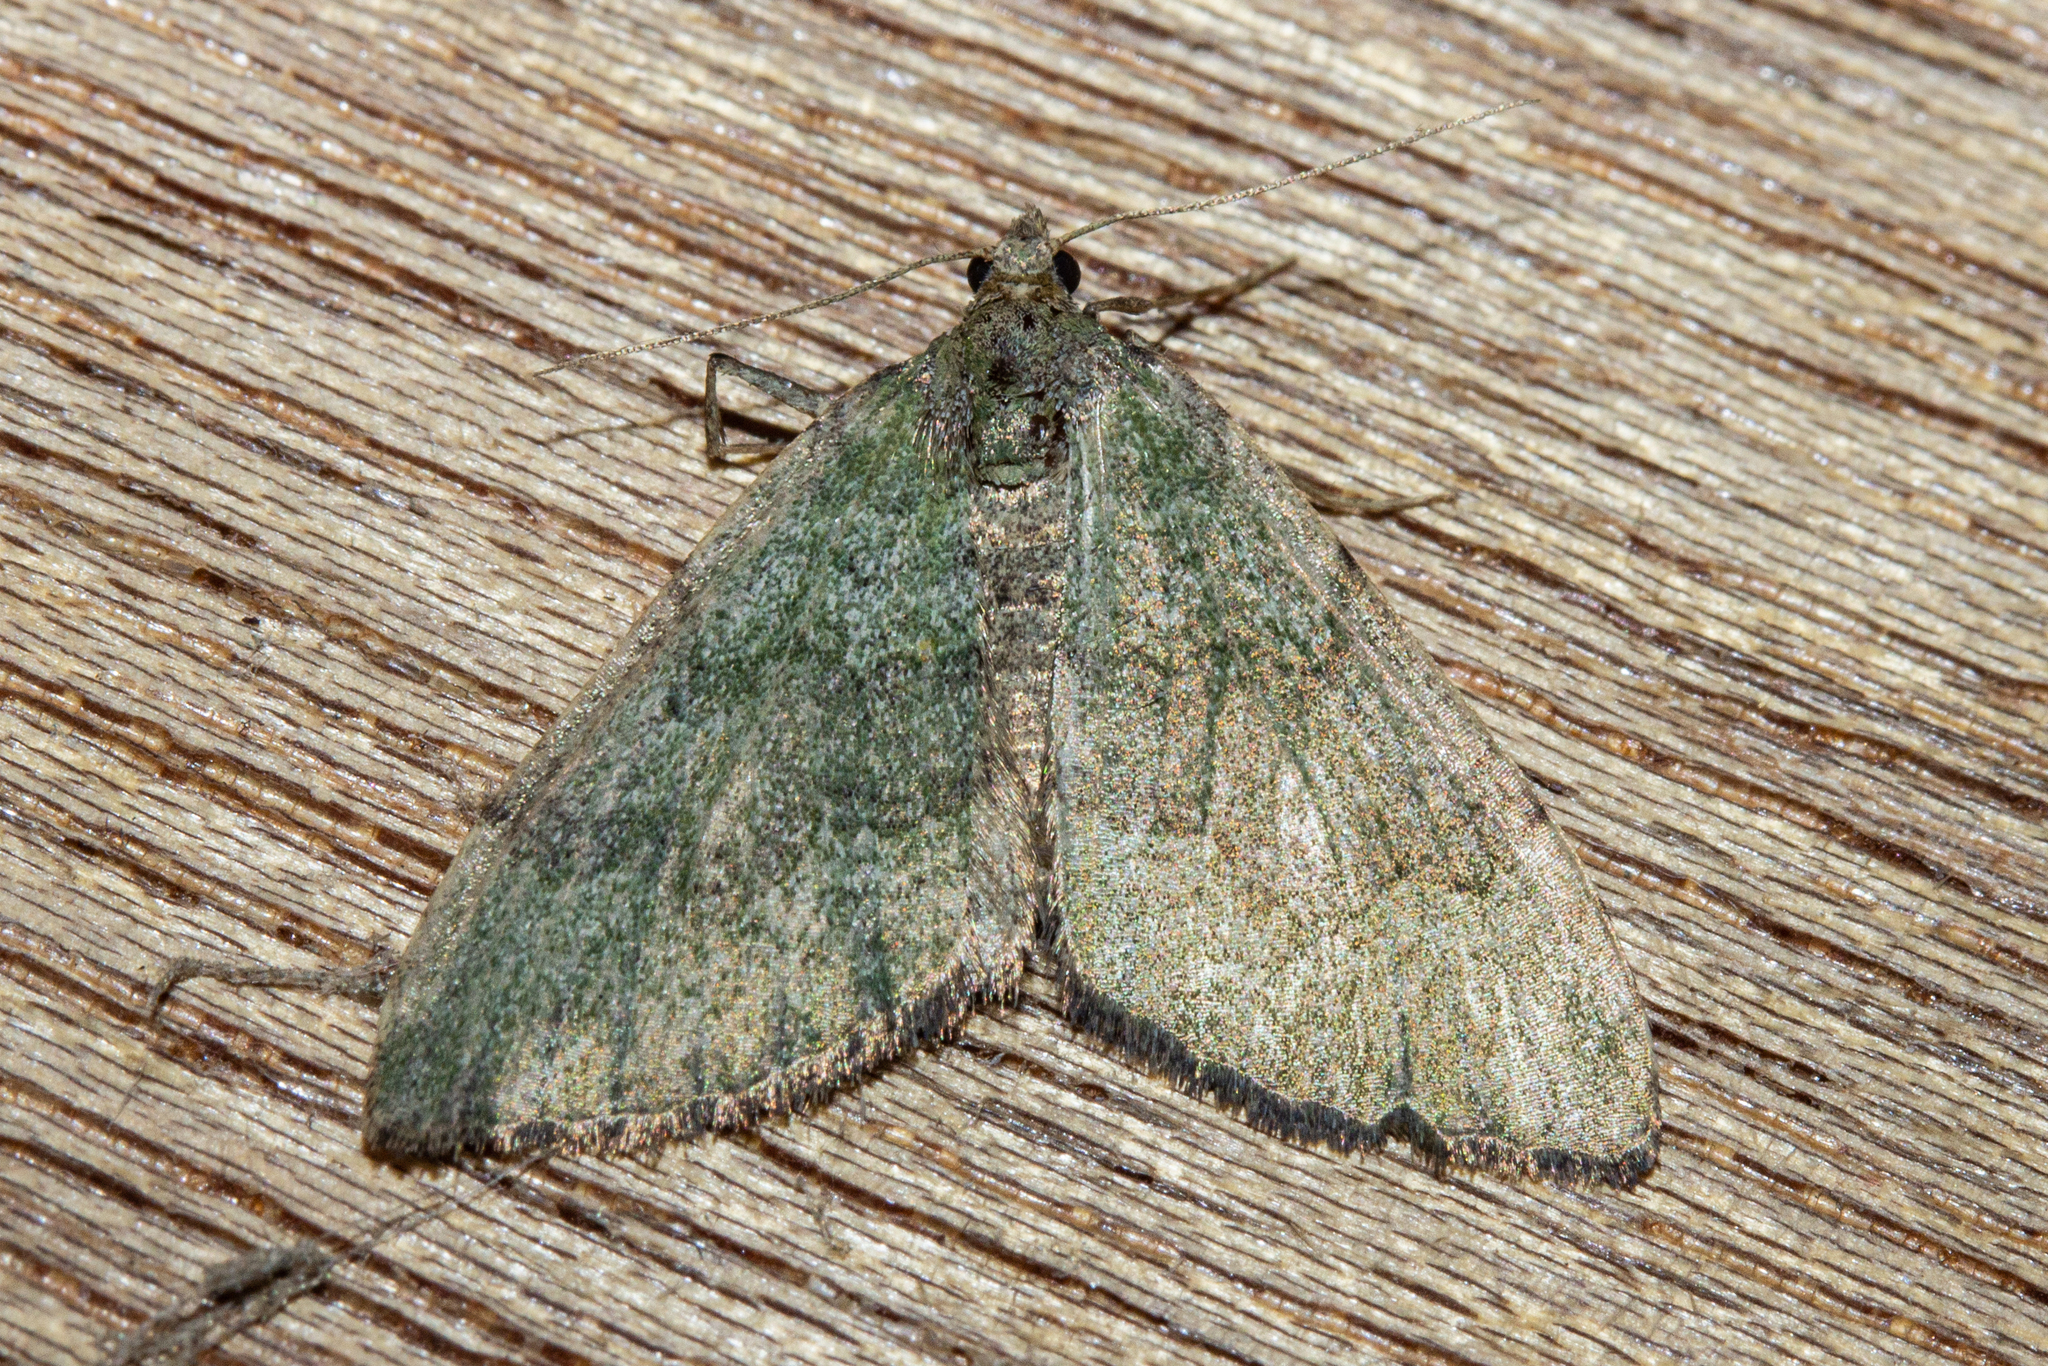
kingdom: Animalia
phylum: Arthropoda
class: Insecta
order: Lepidoptera
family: Geometridae
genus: Epyaxa
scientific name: Epyaxa rosearia
